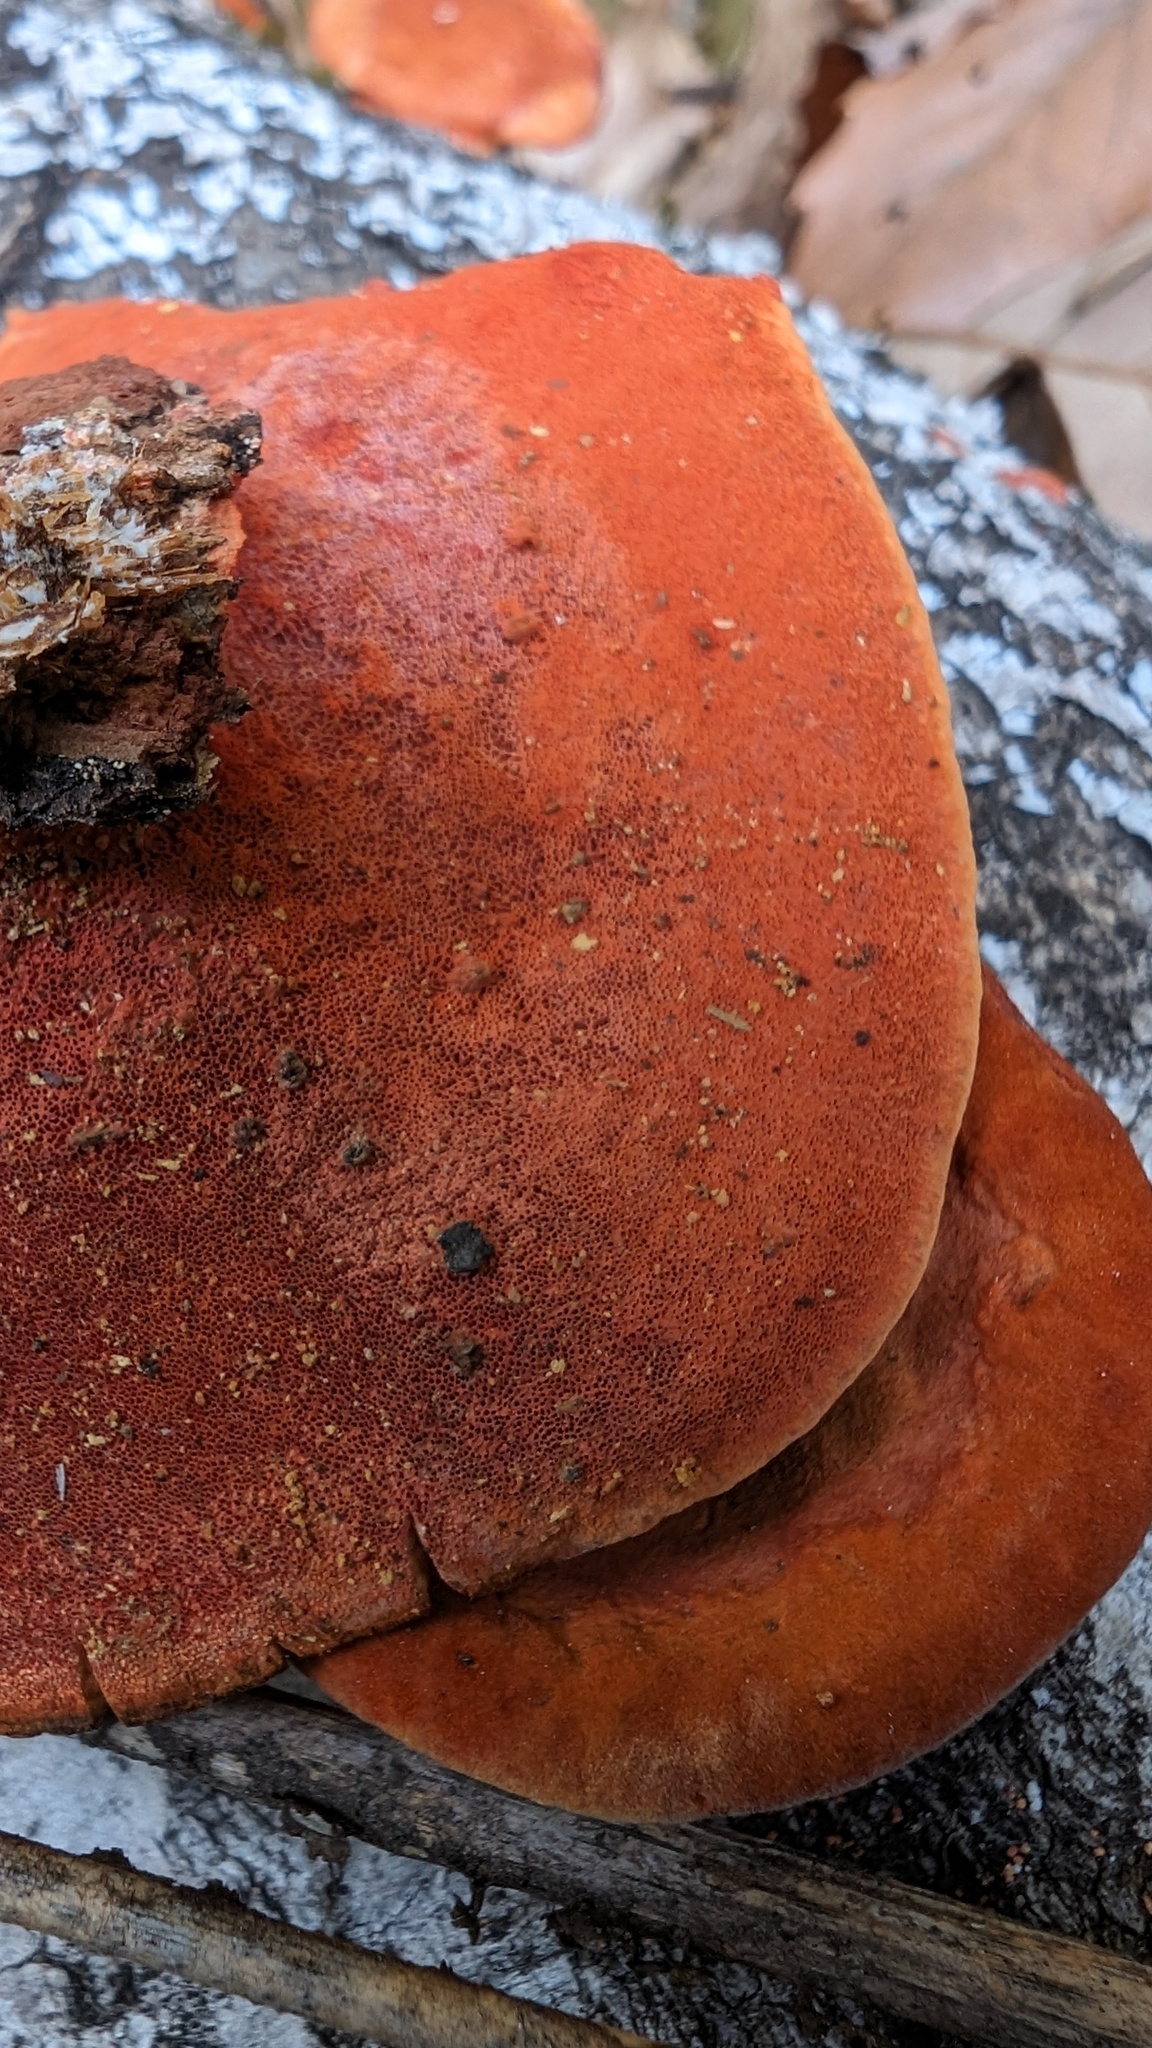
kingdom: Fungi
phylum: Basidiomycota
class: Agaricomycetes
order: Polyporales
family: Polyporaceae
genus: Trametes
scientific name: Trametes coccinea
